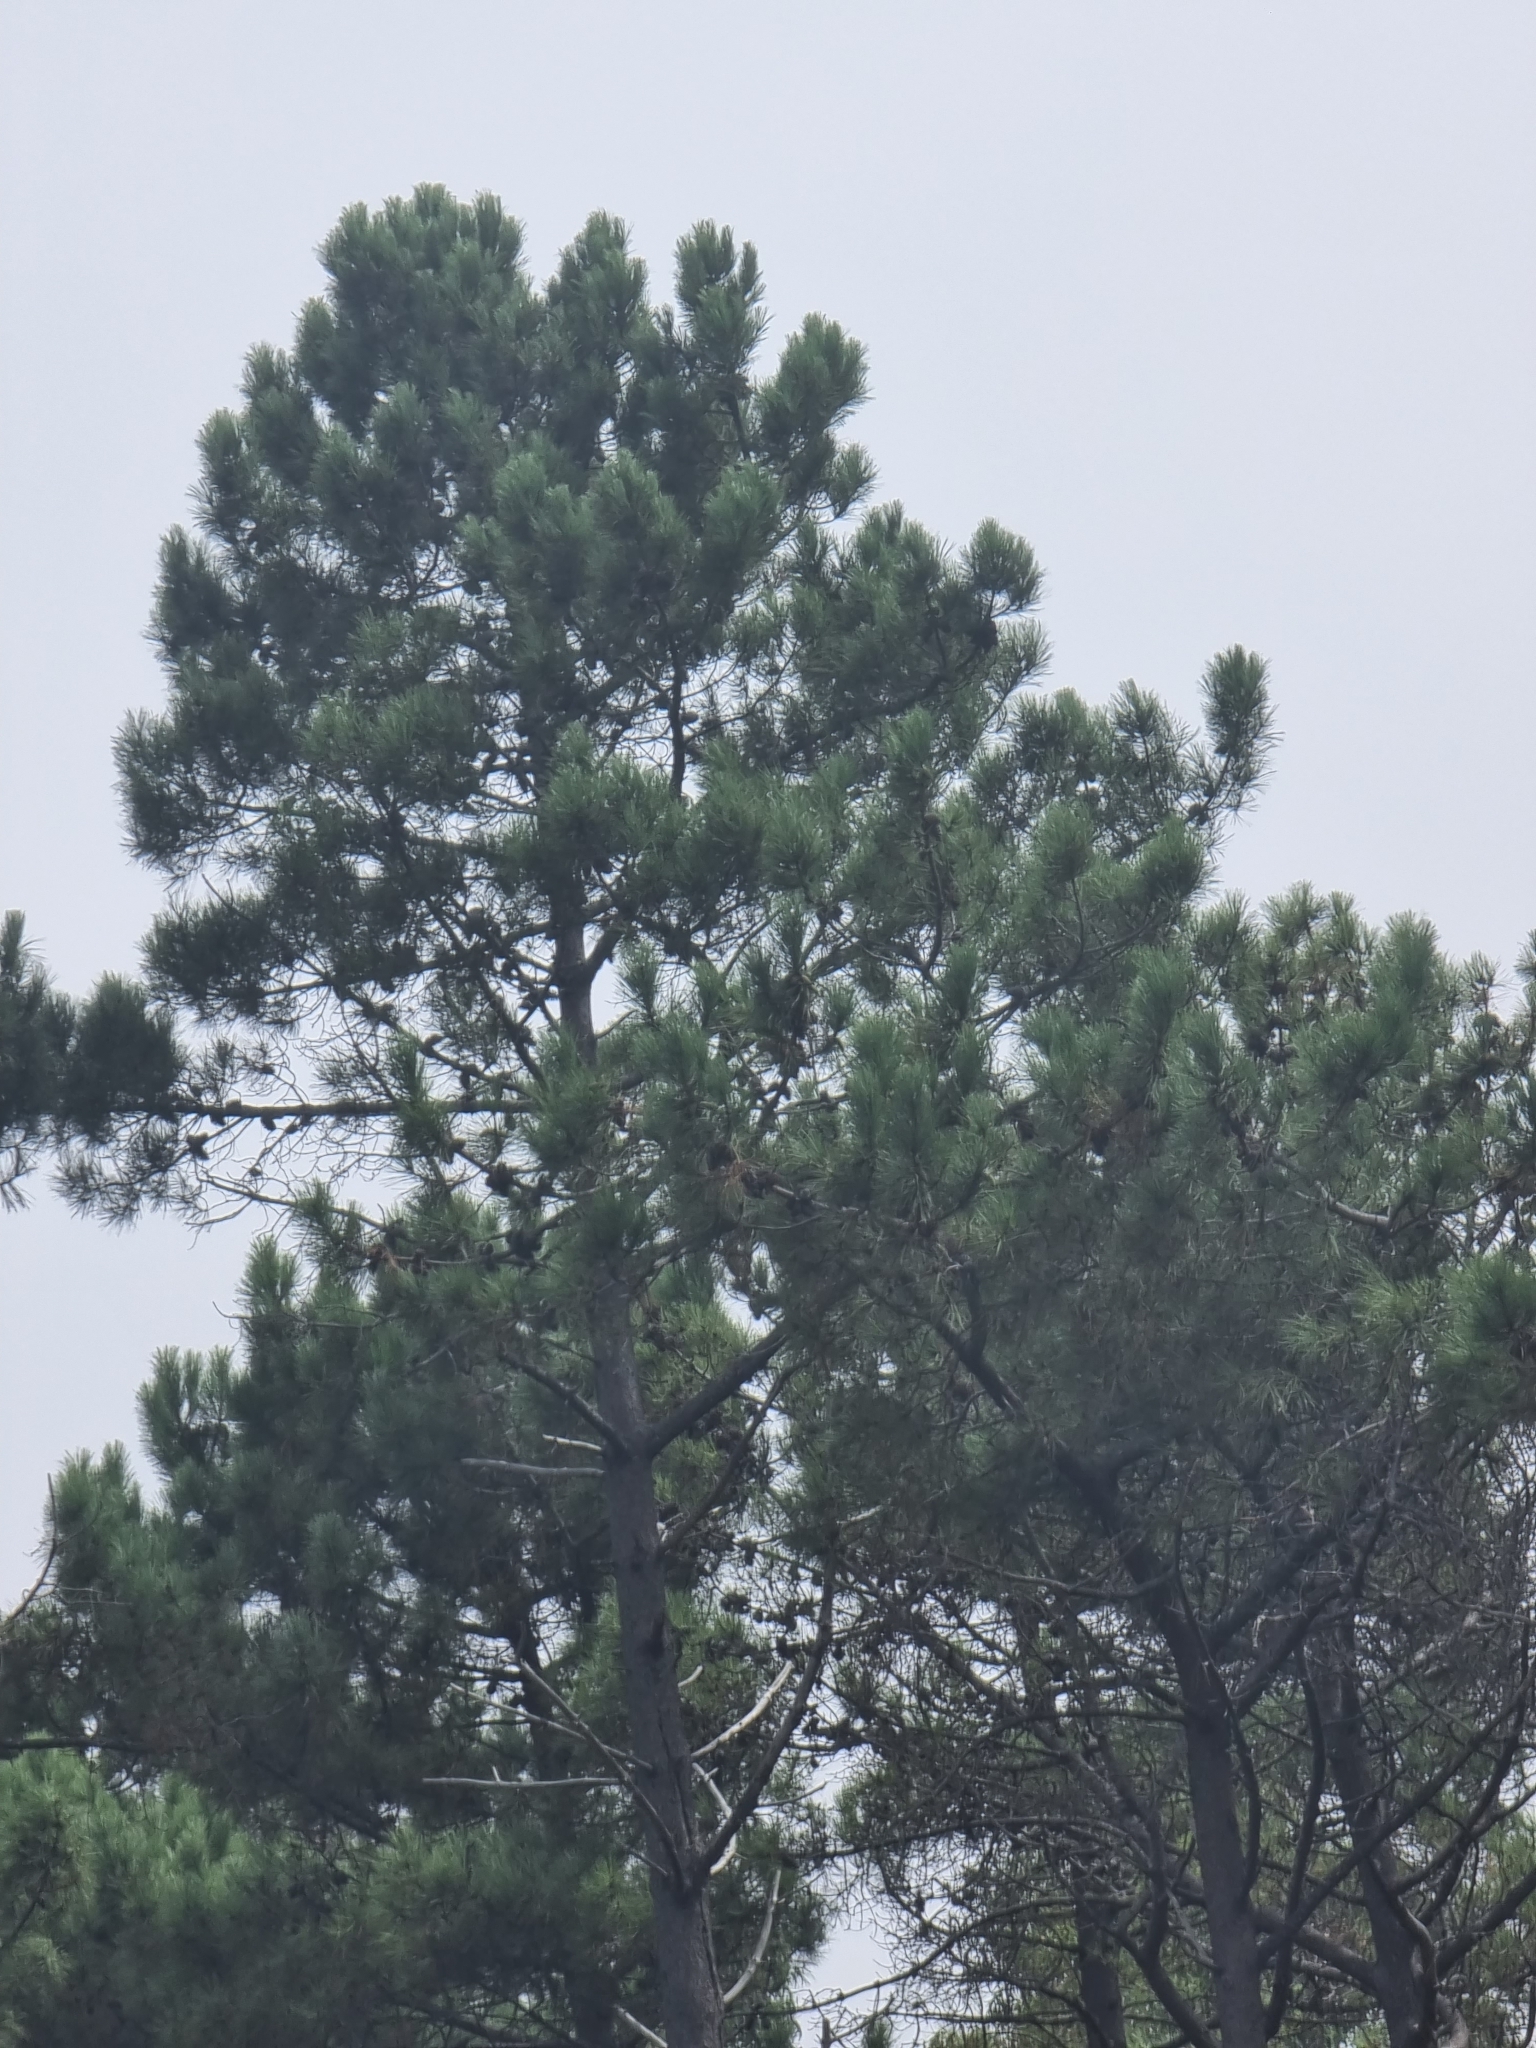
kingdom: Plantae
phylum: Tracheophyta
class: Pinopsida
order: Pinales
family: Pinaceae
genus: Pinus
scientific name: Pinus pinaster
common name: Maritime pine
